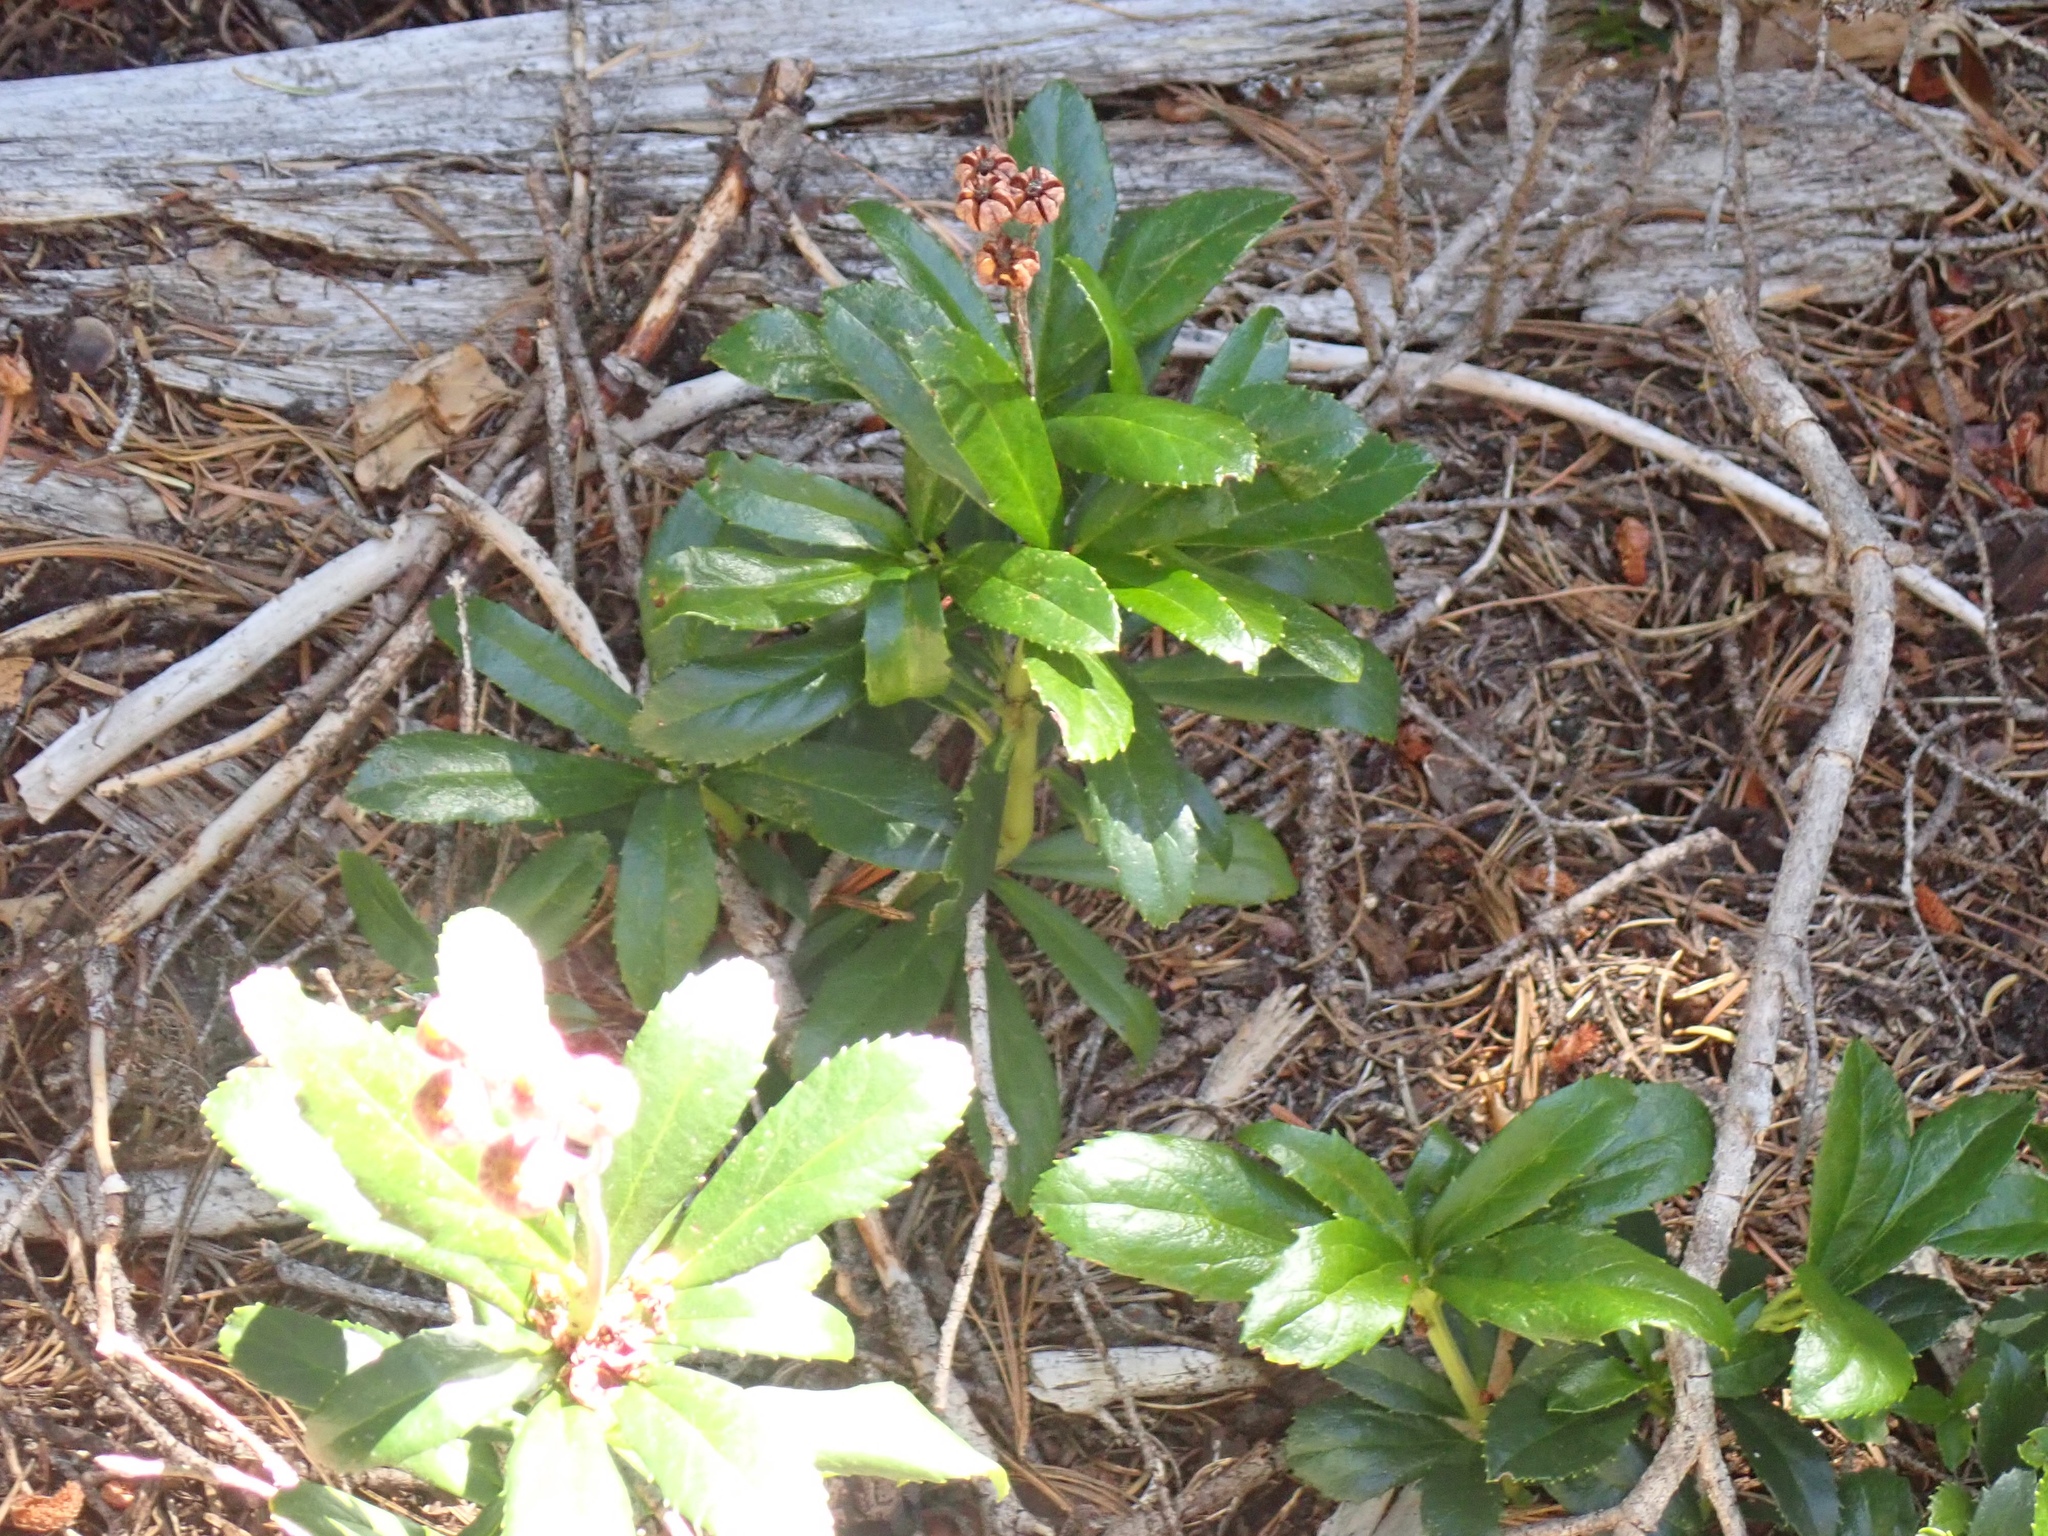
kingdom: Plantae
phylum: Tracheophyta
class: Magnoliopsida
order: Ericales
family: Ericaceae
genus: Chimaphila
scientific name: Chimaphila umbellata
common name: Pipsissewa
